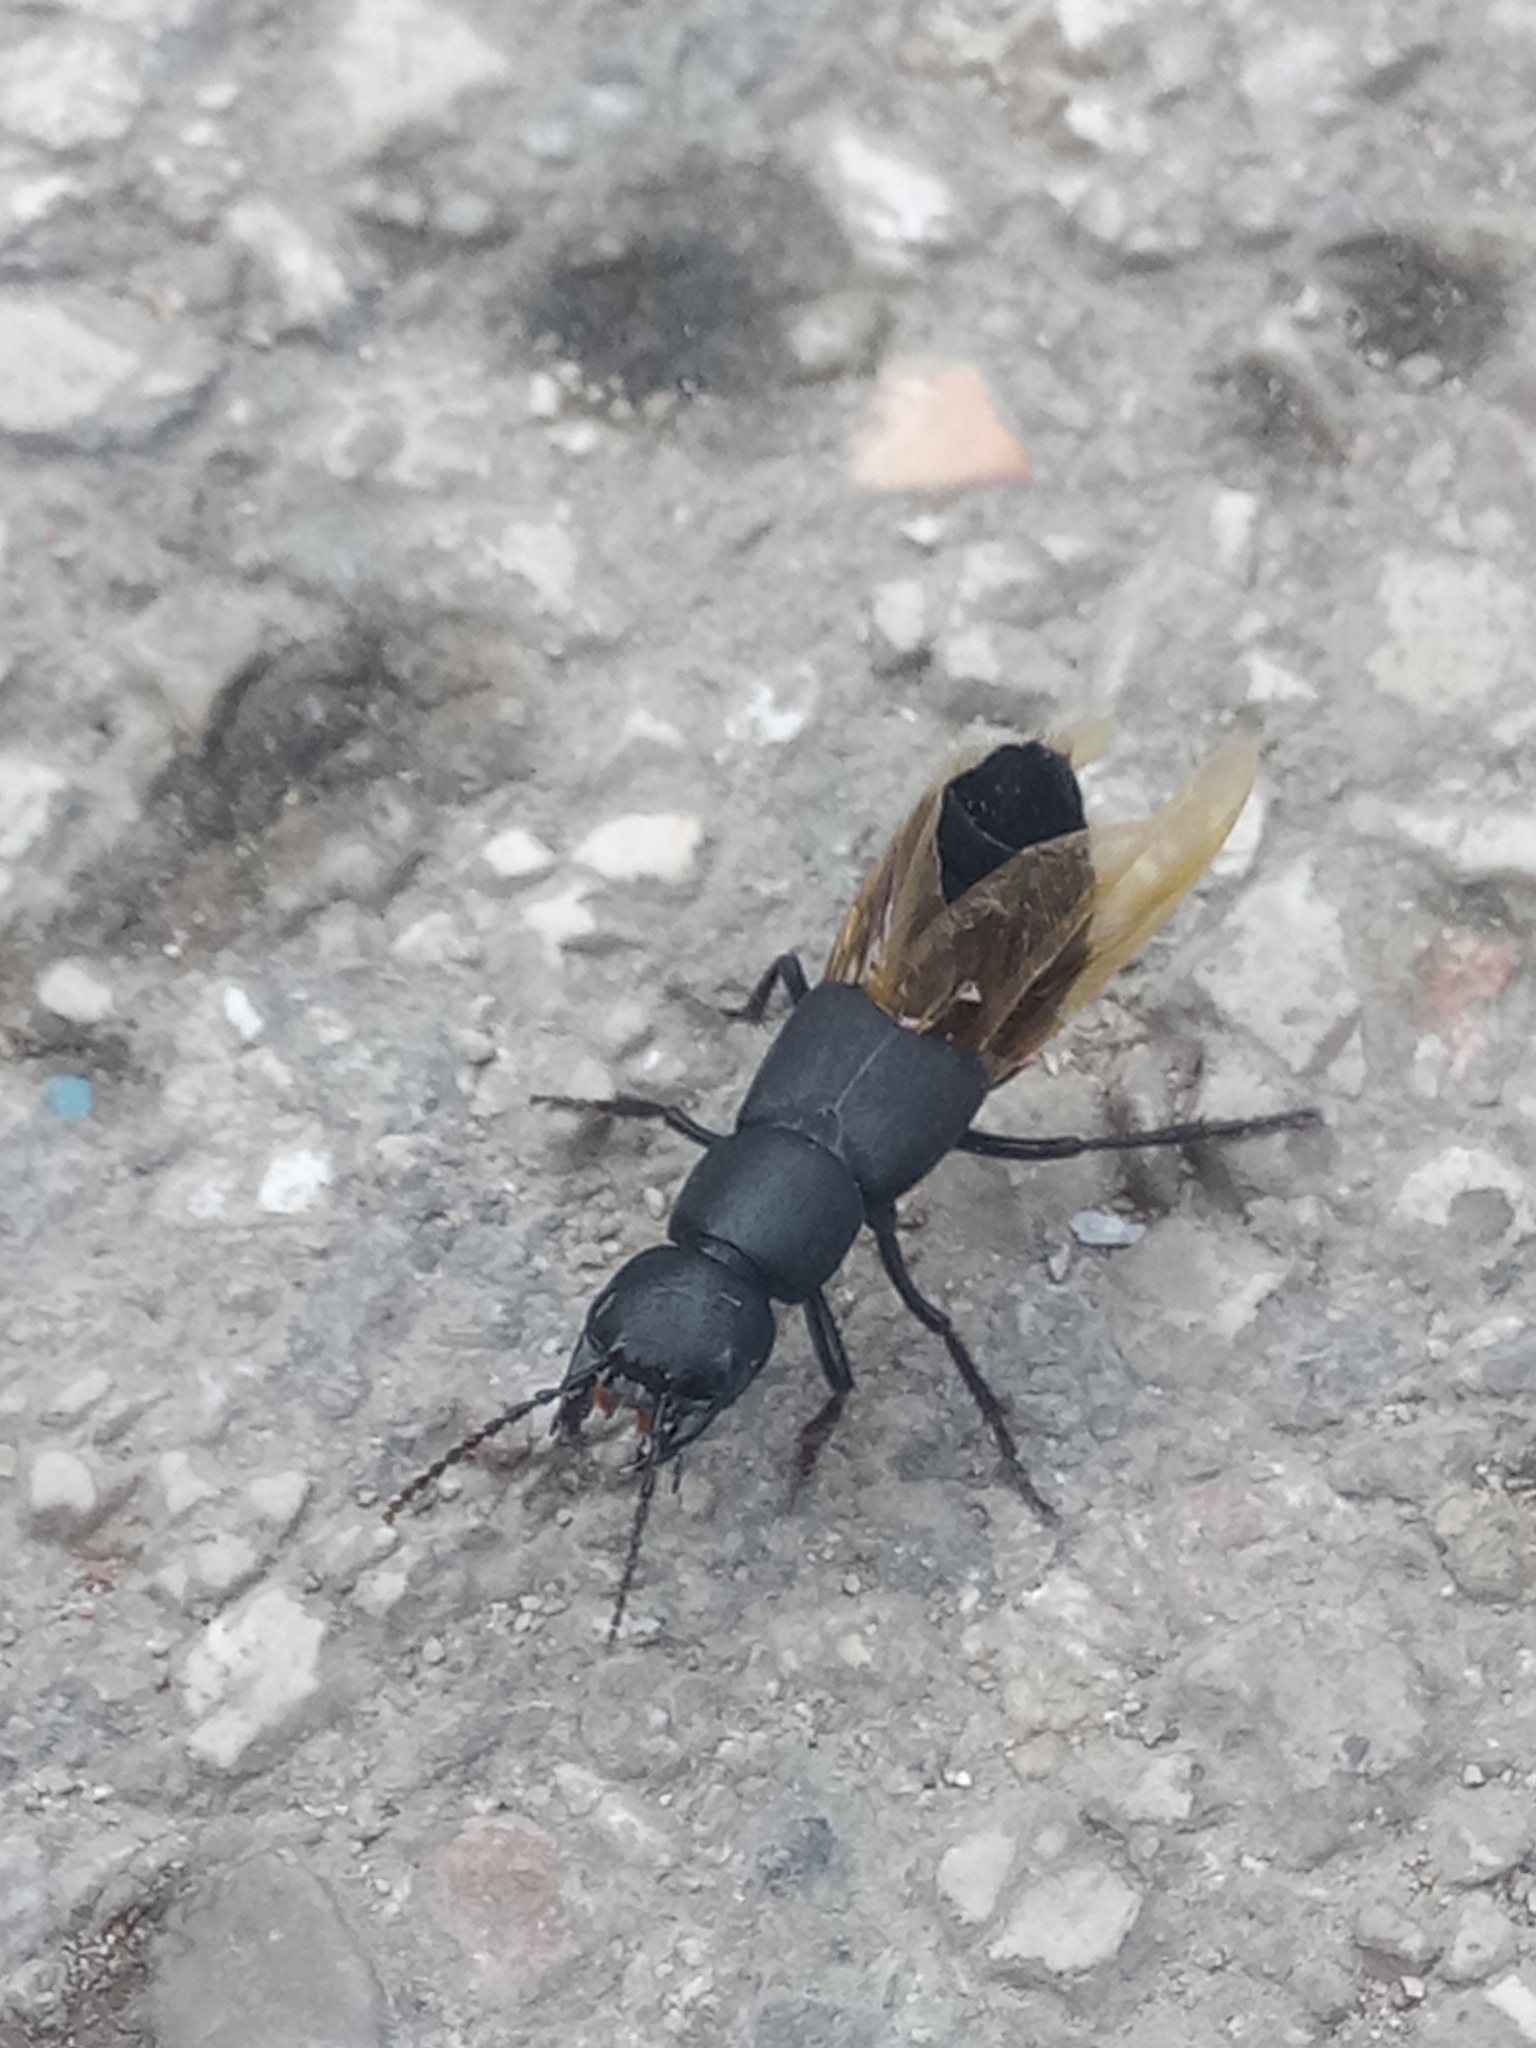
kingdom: Animalia
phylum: Arthropoda
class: Insecta
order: Coleoptera
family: Staphylinidae
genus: Ocypus
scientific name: Ocypus olens
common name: Devil's coach-horse
